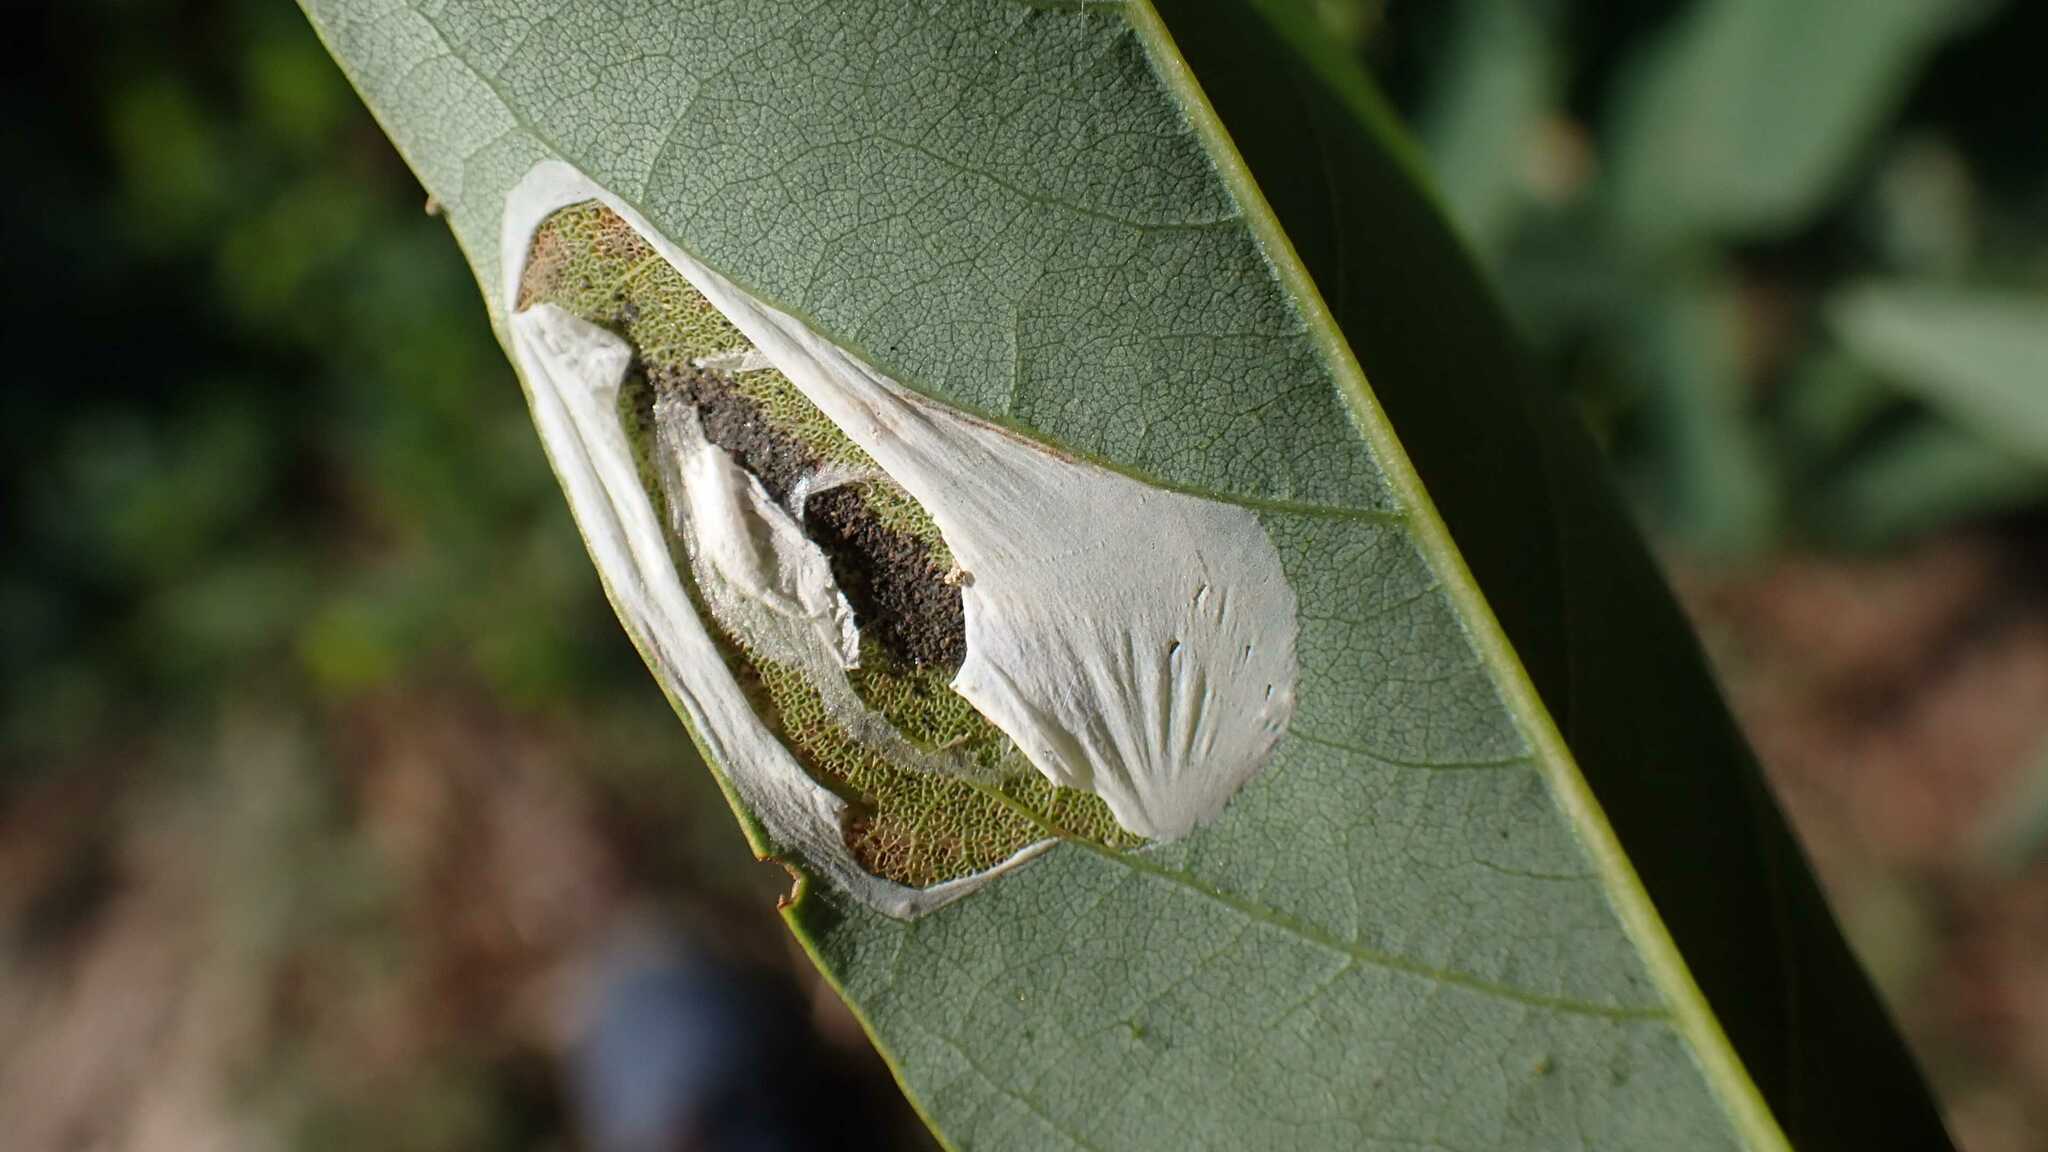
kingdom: Animalia
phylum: Arthropoda
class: Insecta
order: Lepidoptera
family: Gracillariidae
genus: Macrosaccus
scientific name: Macrosaccus robiniella
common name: Leaf blotch miner moth
